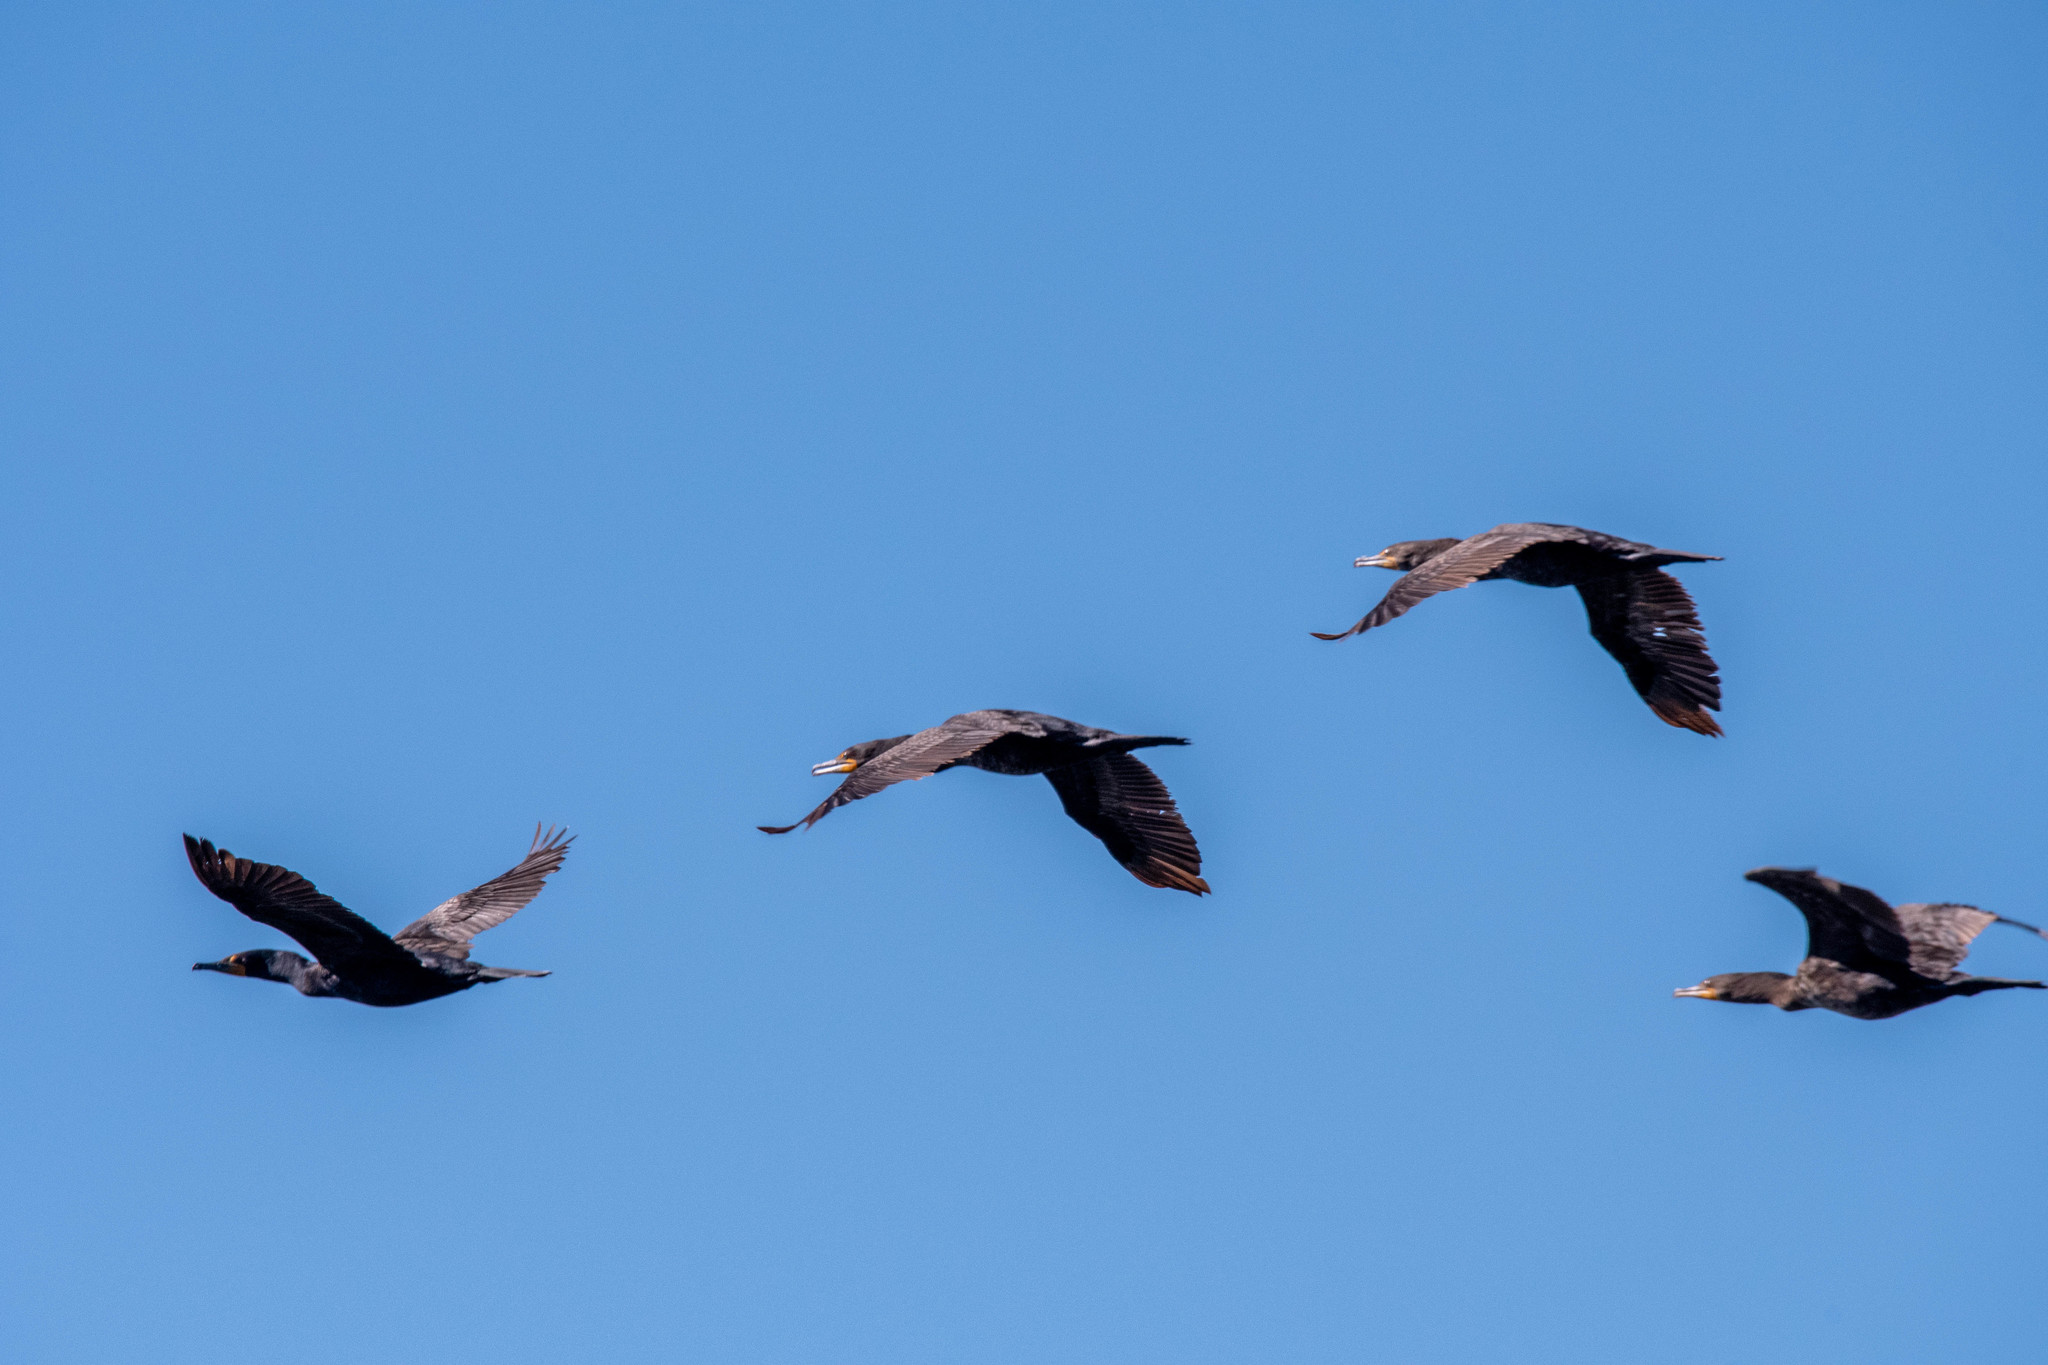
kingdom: Animalia
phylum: Chordata
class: Aves
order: Suliformes
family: Phalacrocoracidae
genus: Phalacrocorax
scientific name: Phalacrocorax auritus
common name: Double-crested cormorant
